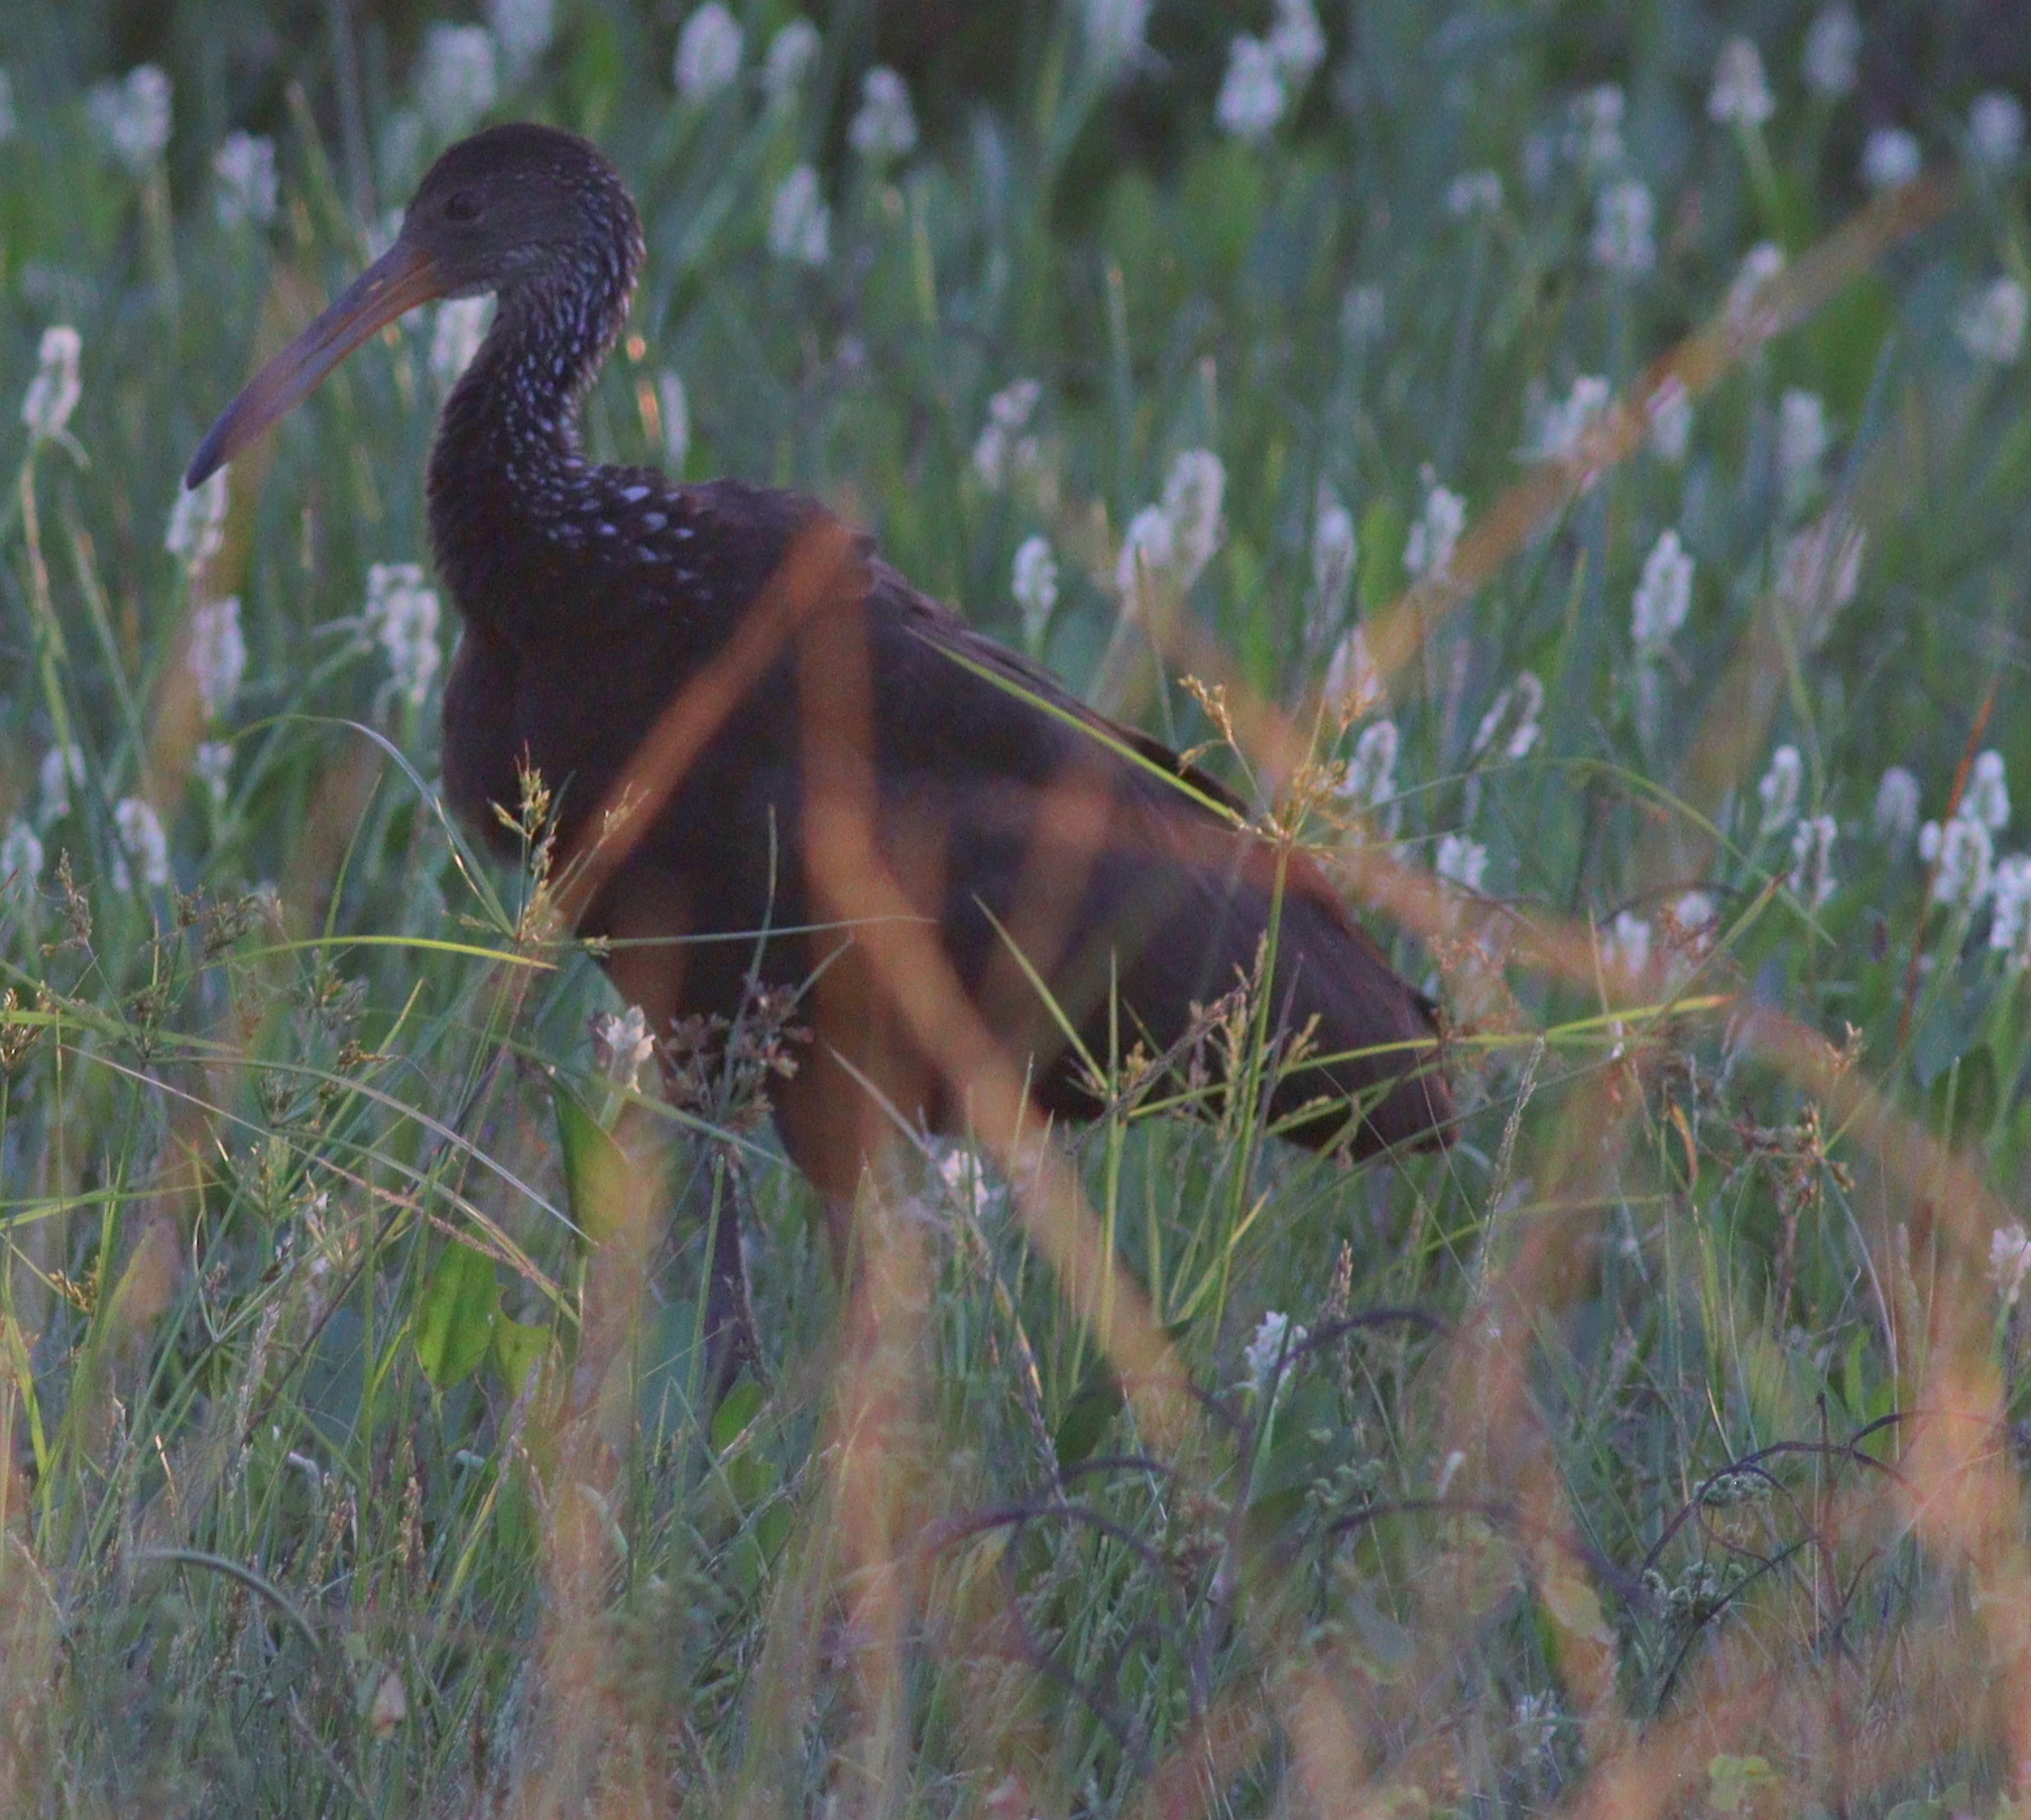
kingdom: Animalia
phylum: Chordata
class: Aves
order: Gruiformes
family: Aramidae
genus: Aramus
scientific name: Aramus guarauna
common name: Limpkin
